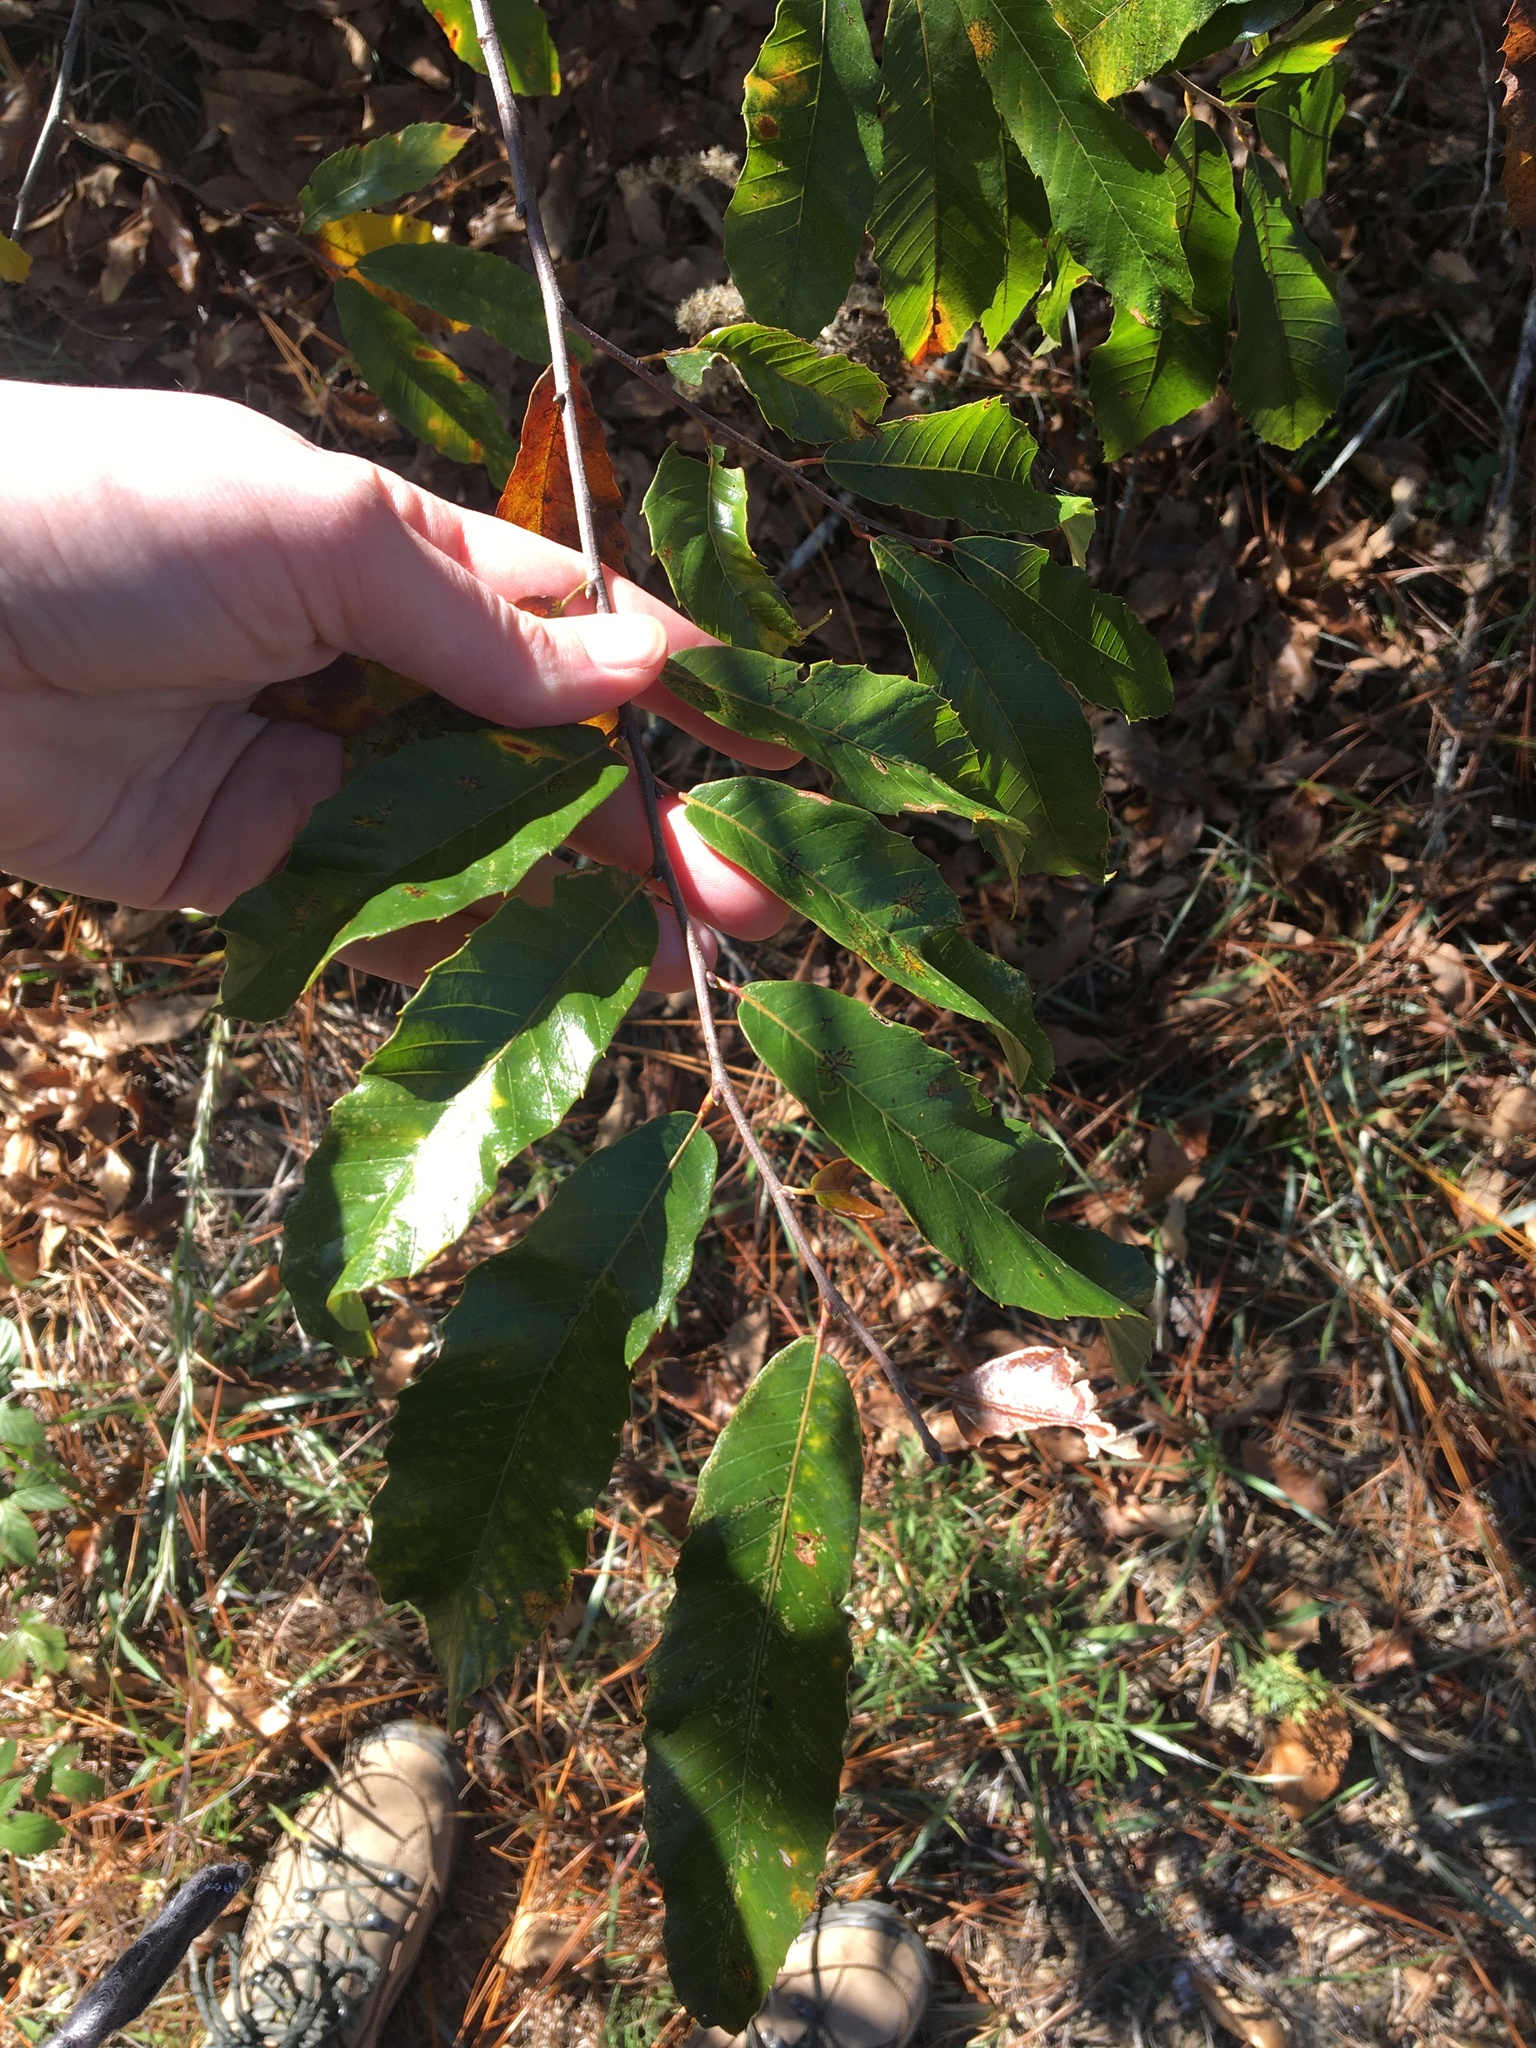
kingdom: Plantae
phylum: Tracheophyta
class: Magnoliopsida
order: Fagales
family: Fagaceae
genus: Castanea
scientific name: Castanea pumila
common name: Chinkapin
